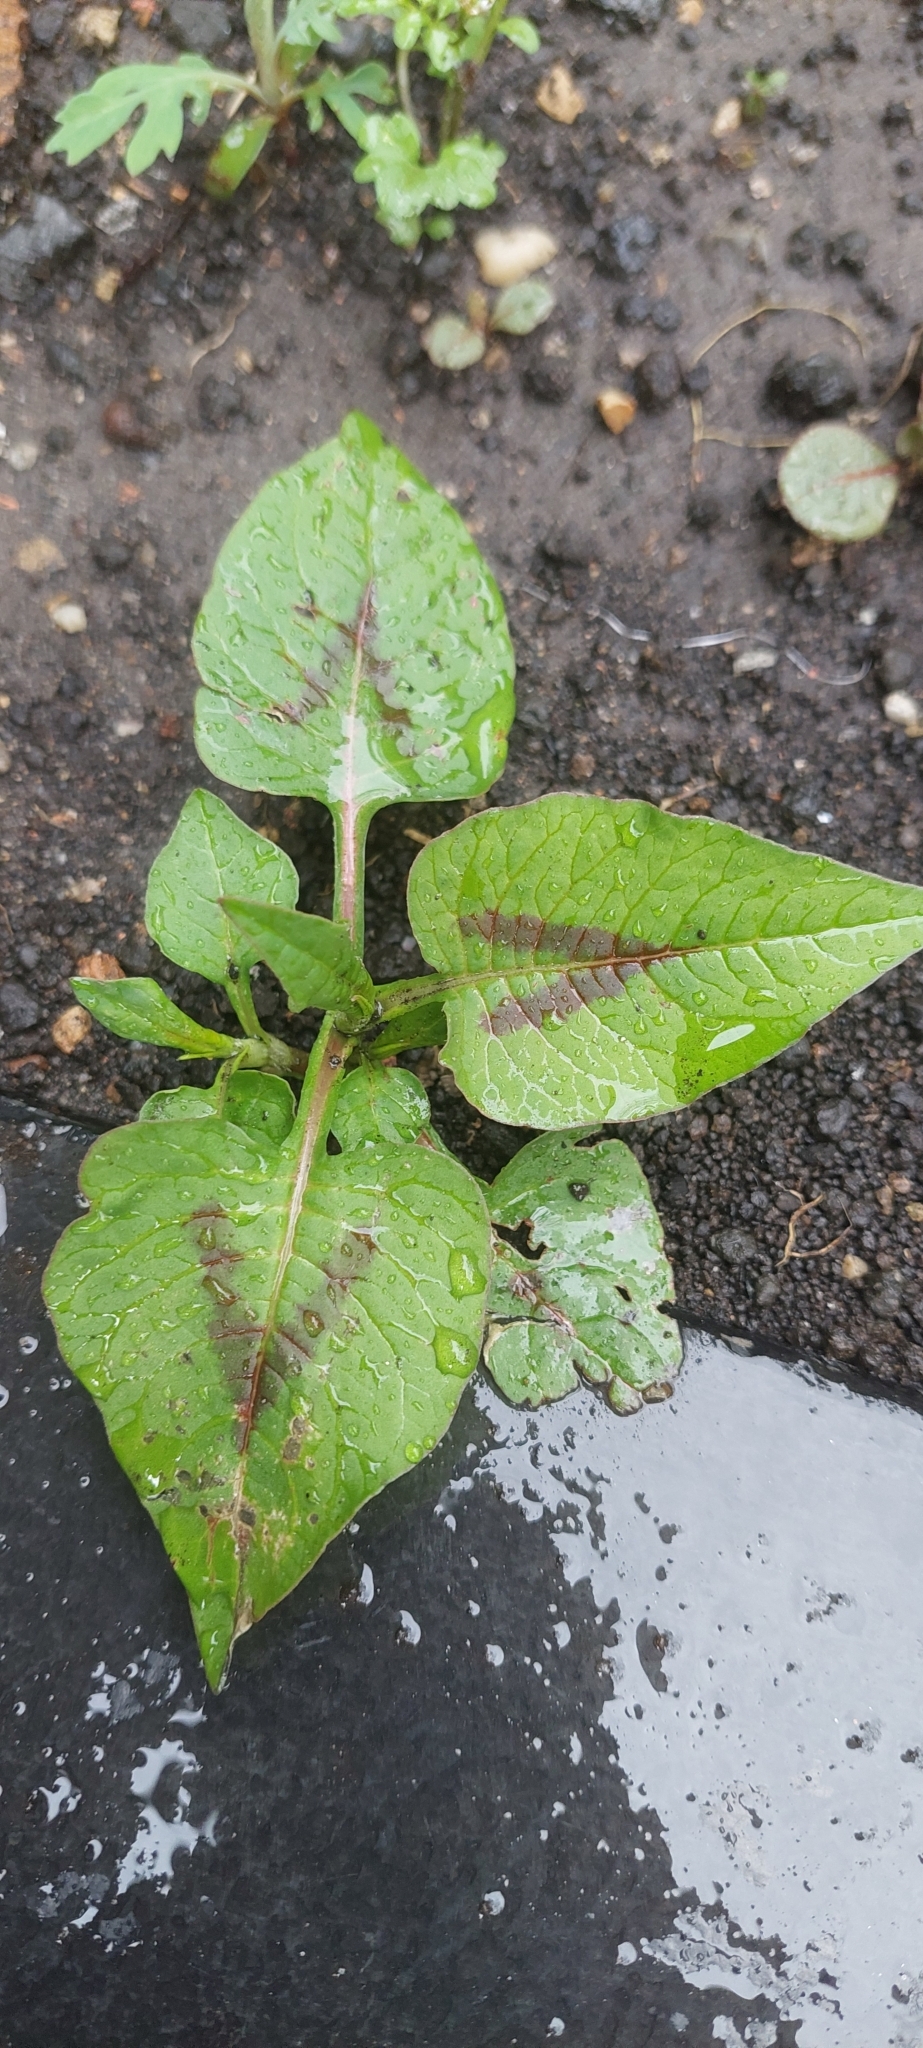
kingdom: Plantae
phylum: Tracheophyta
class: Magnoliopsida
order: Caryophyllales
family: Polygonaceae
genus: Persicaria
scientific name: Persicaria nepalensis
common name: Nepal persicaria
